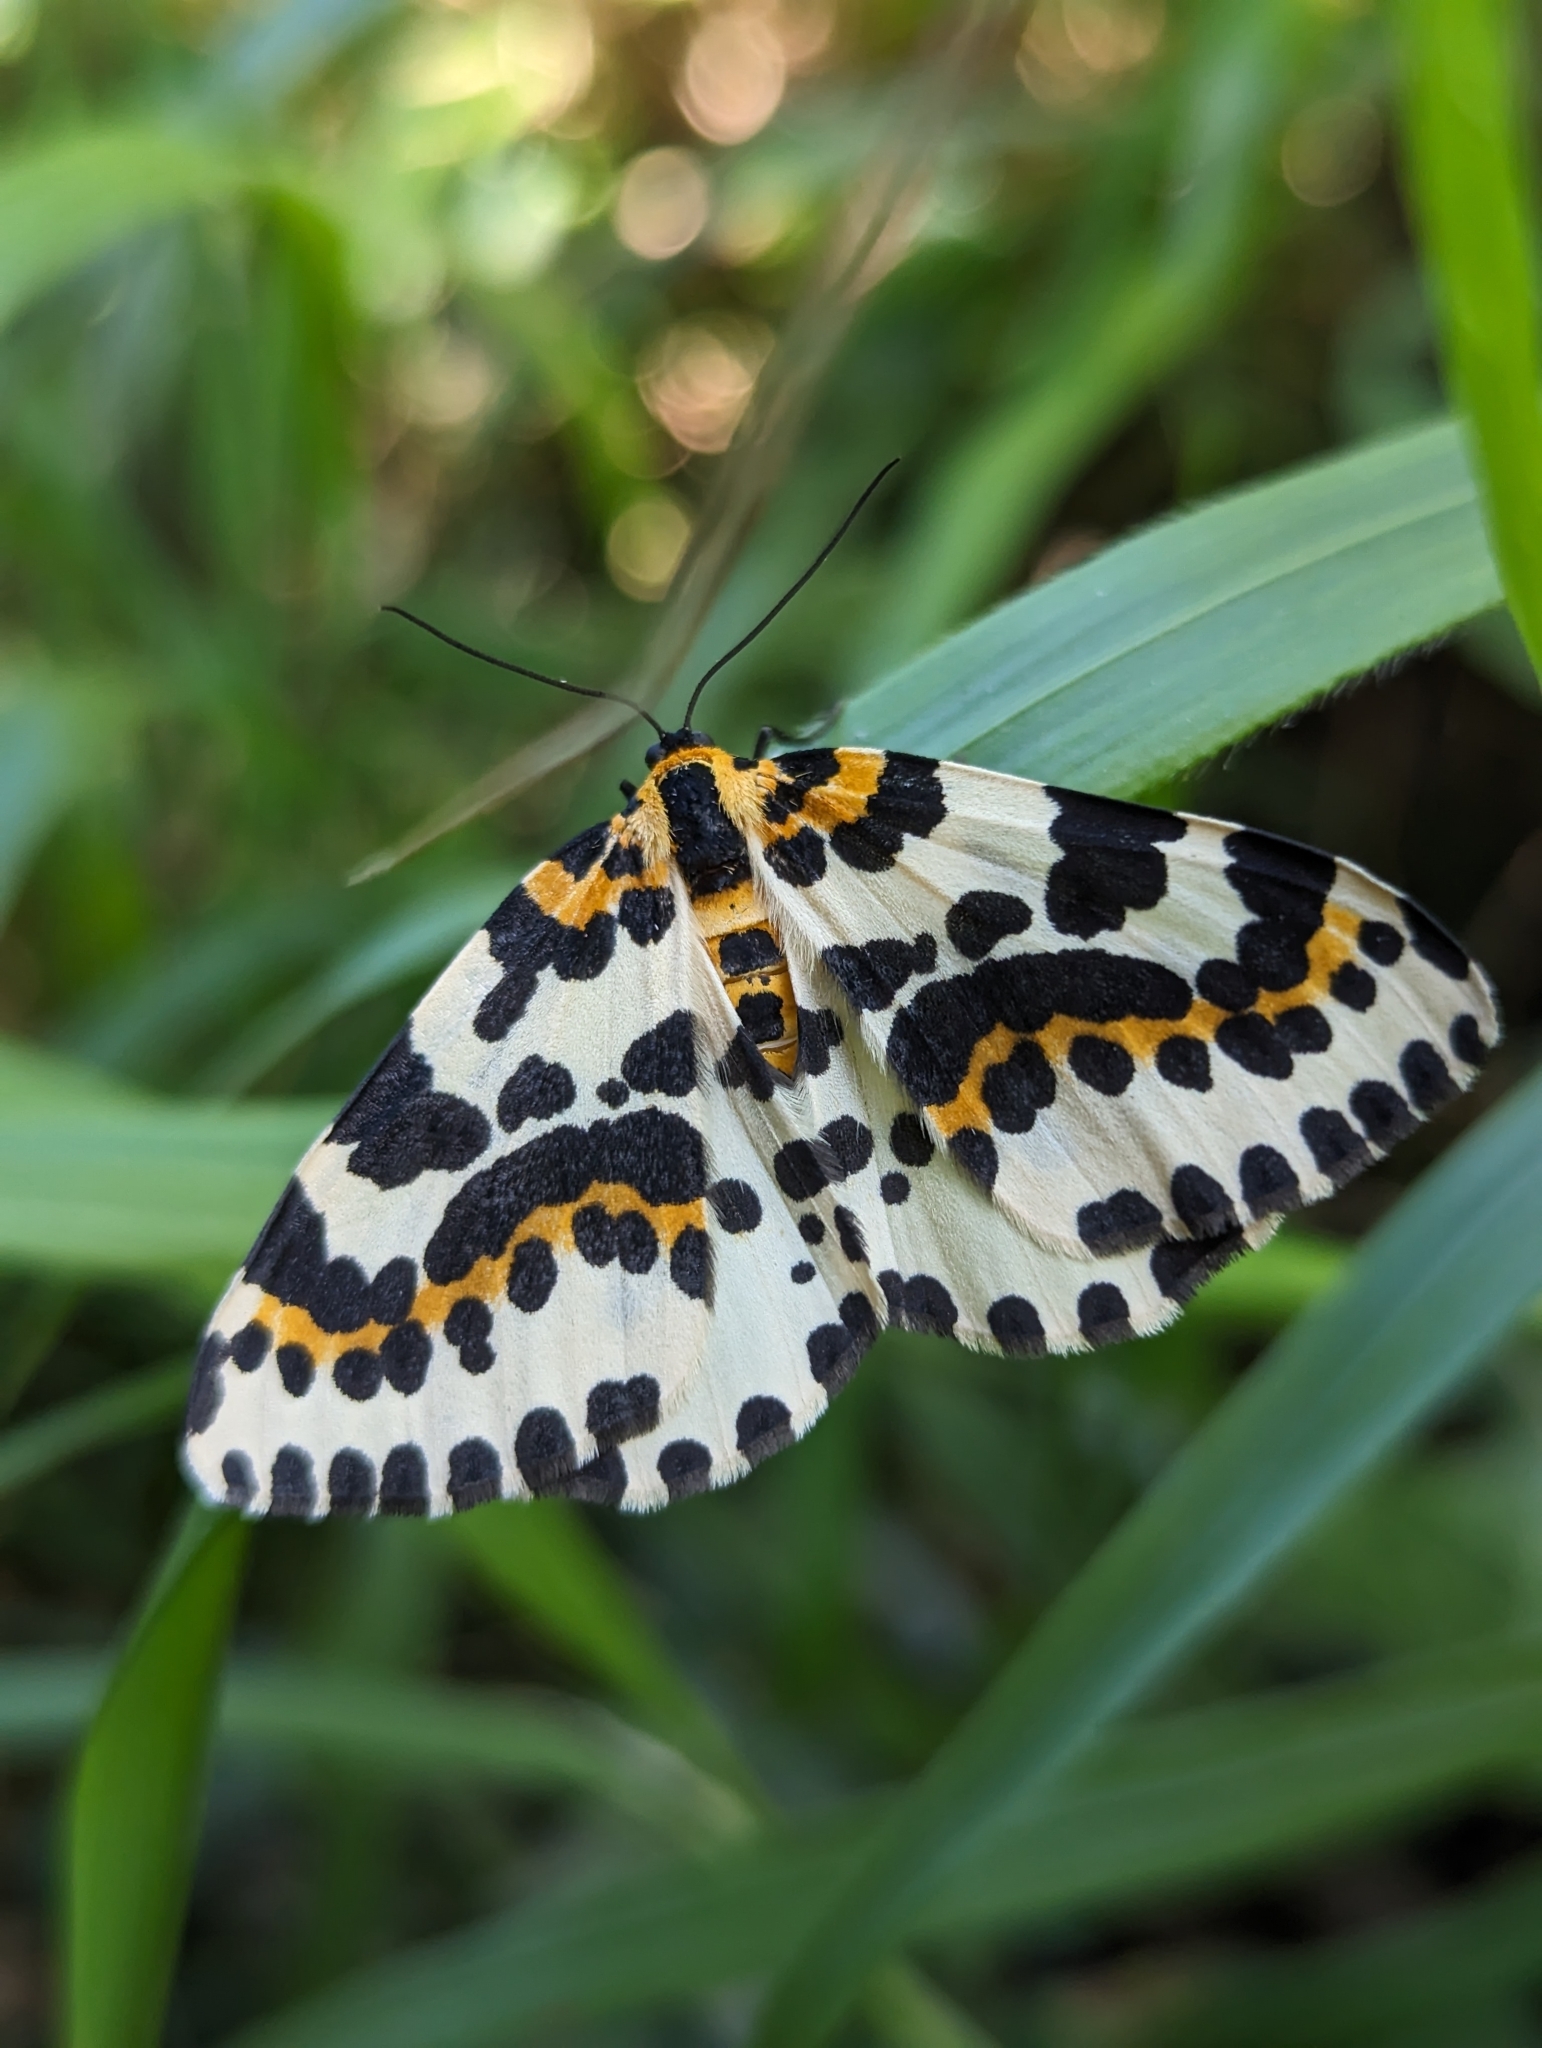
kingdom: Animalia
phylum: Arthropoda
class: Insecta
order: Lepidoptera
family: Geometridae
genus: Abraxas
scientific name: Abraxas grossulariata
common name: Magpie
